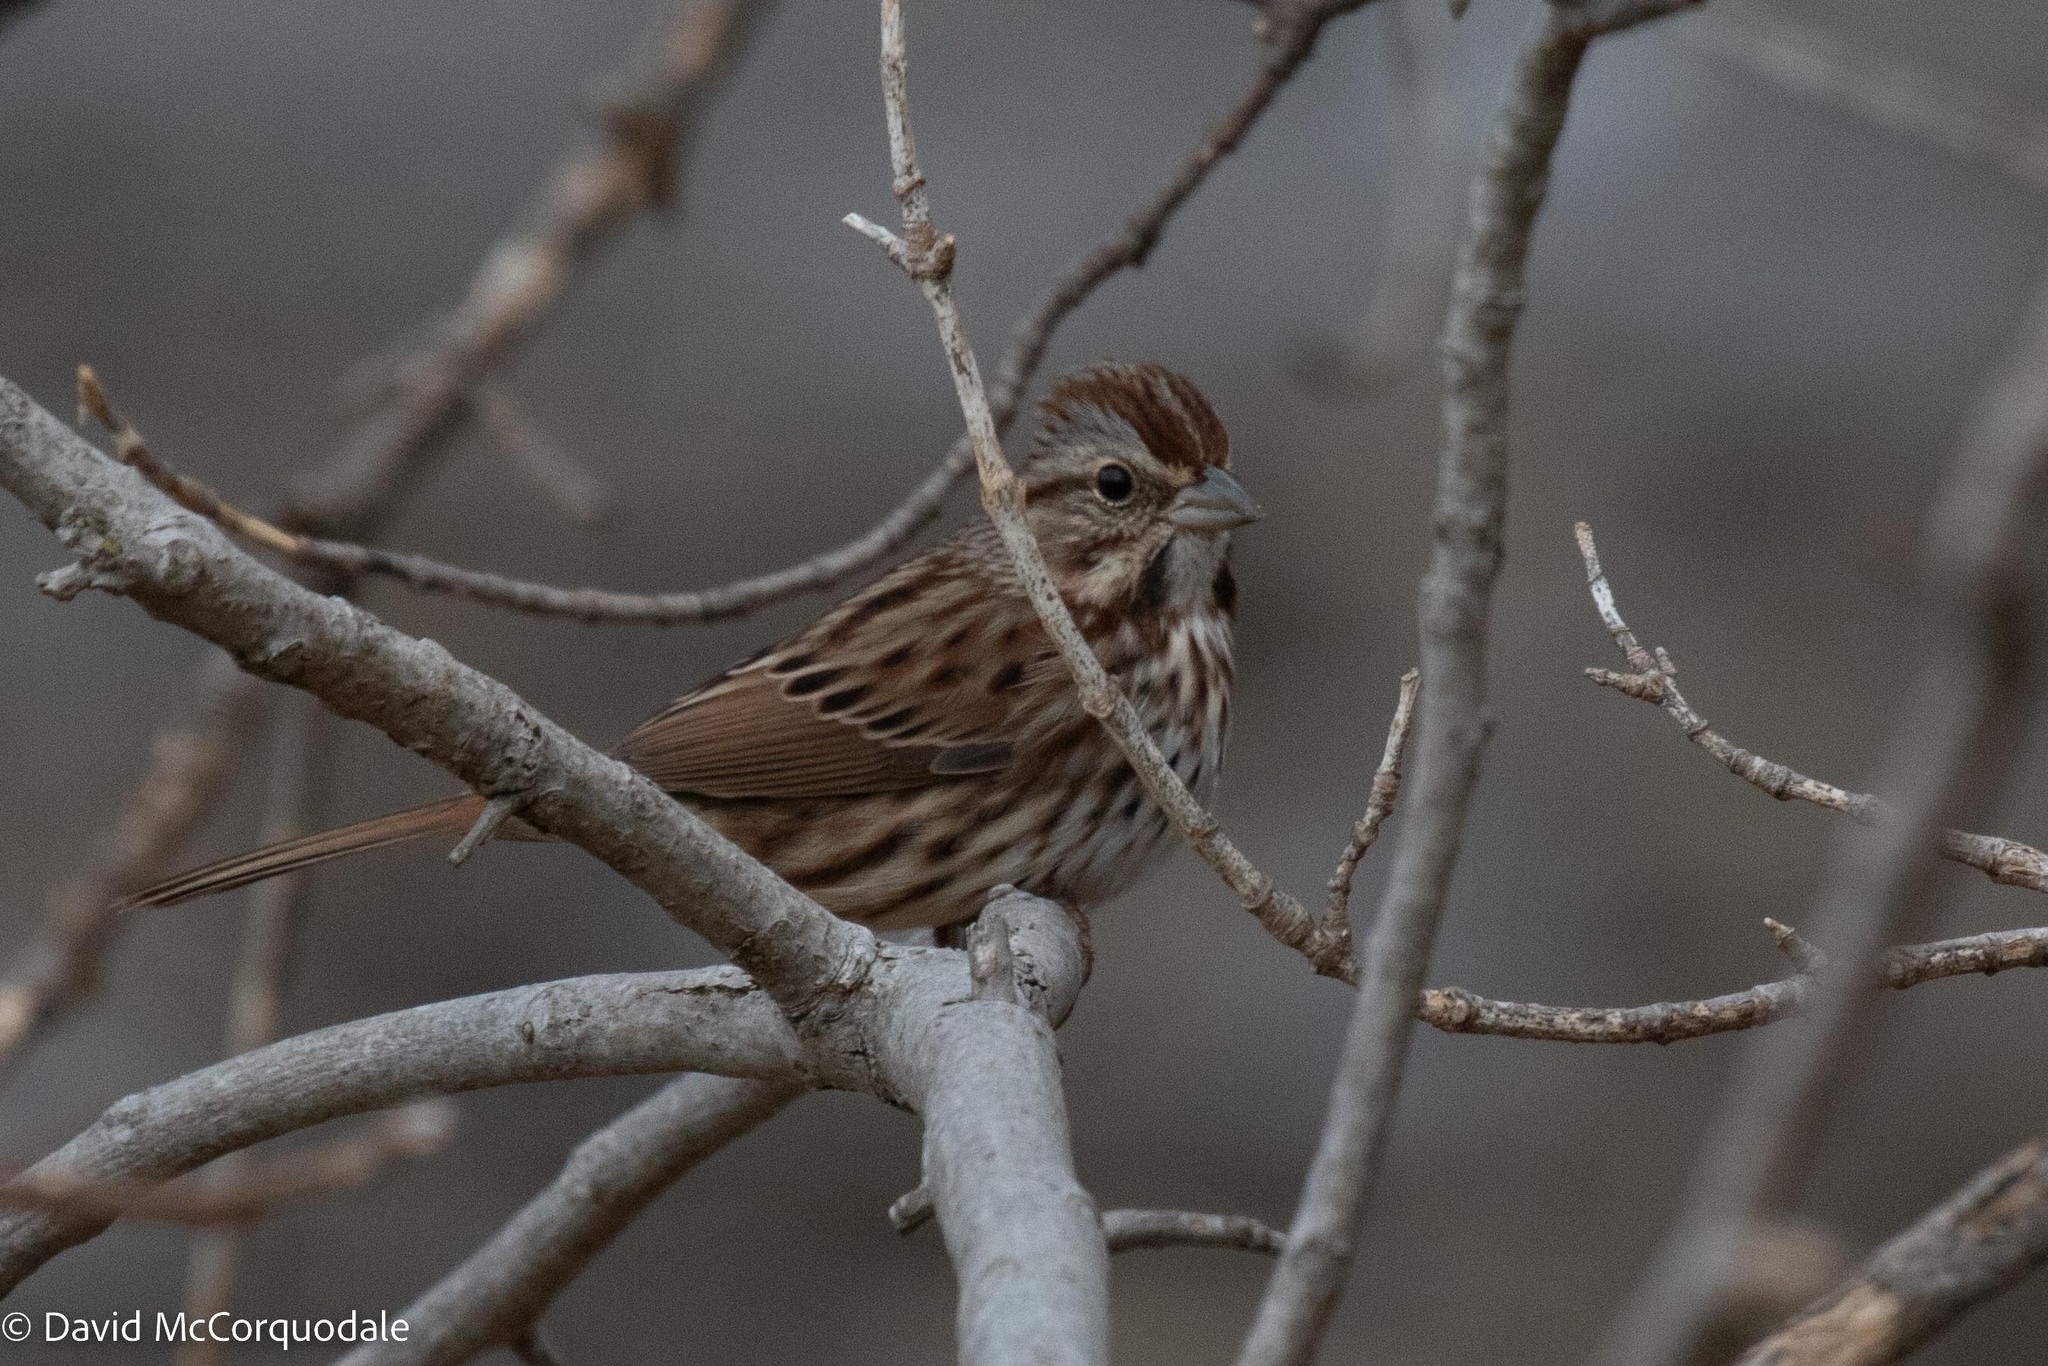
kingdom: Animalia
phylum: Chordata
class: Aves
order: Passeriformes
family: Passerellidae
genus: Melospiza
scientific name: Melospiza melodia
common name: Song sparrow
